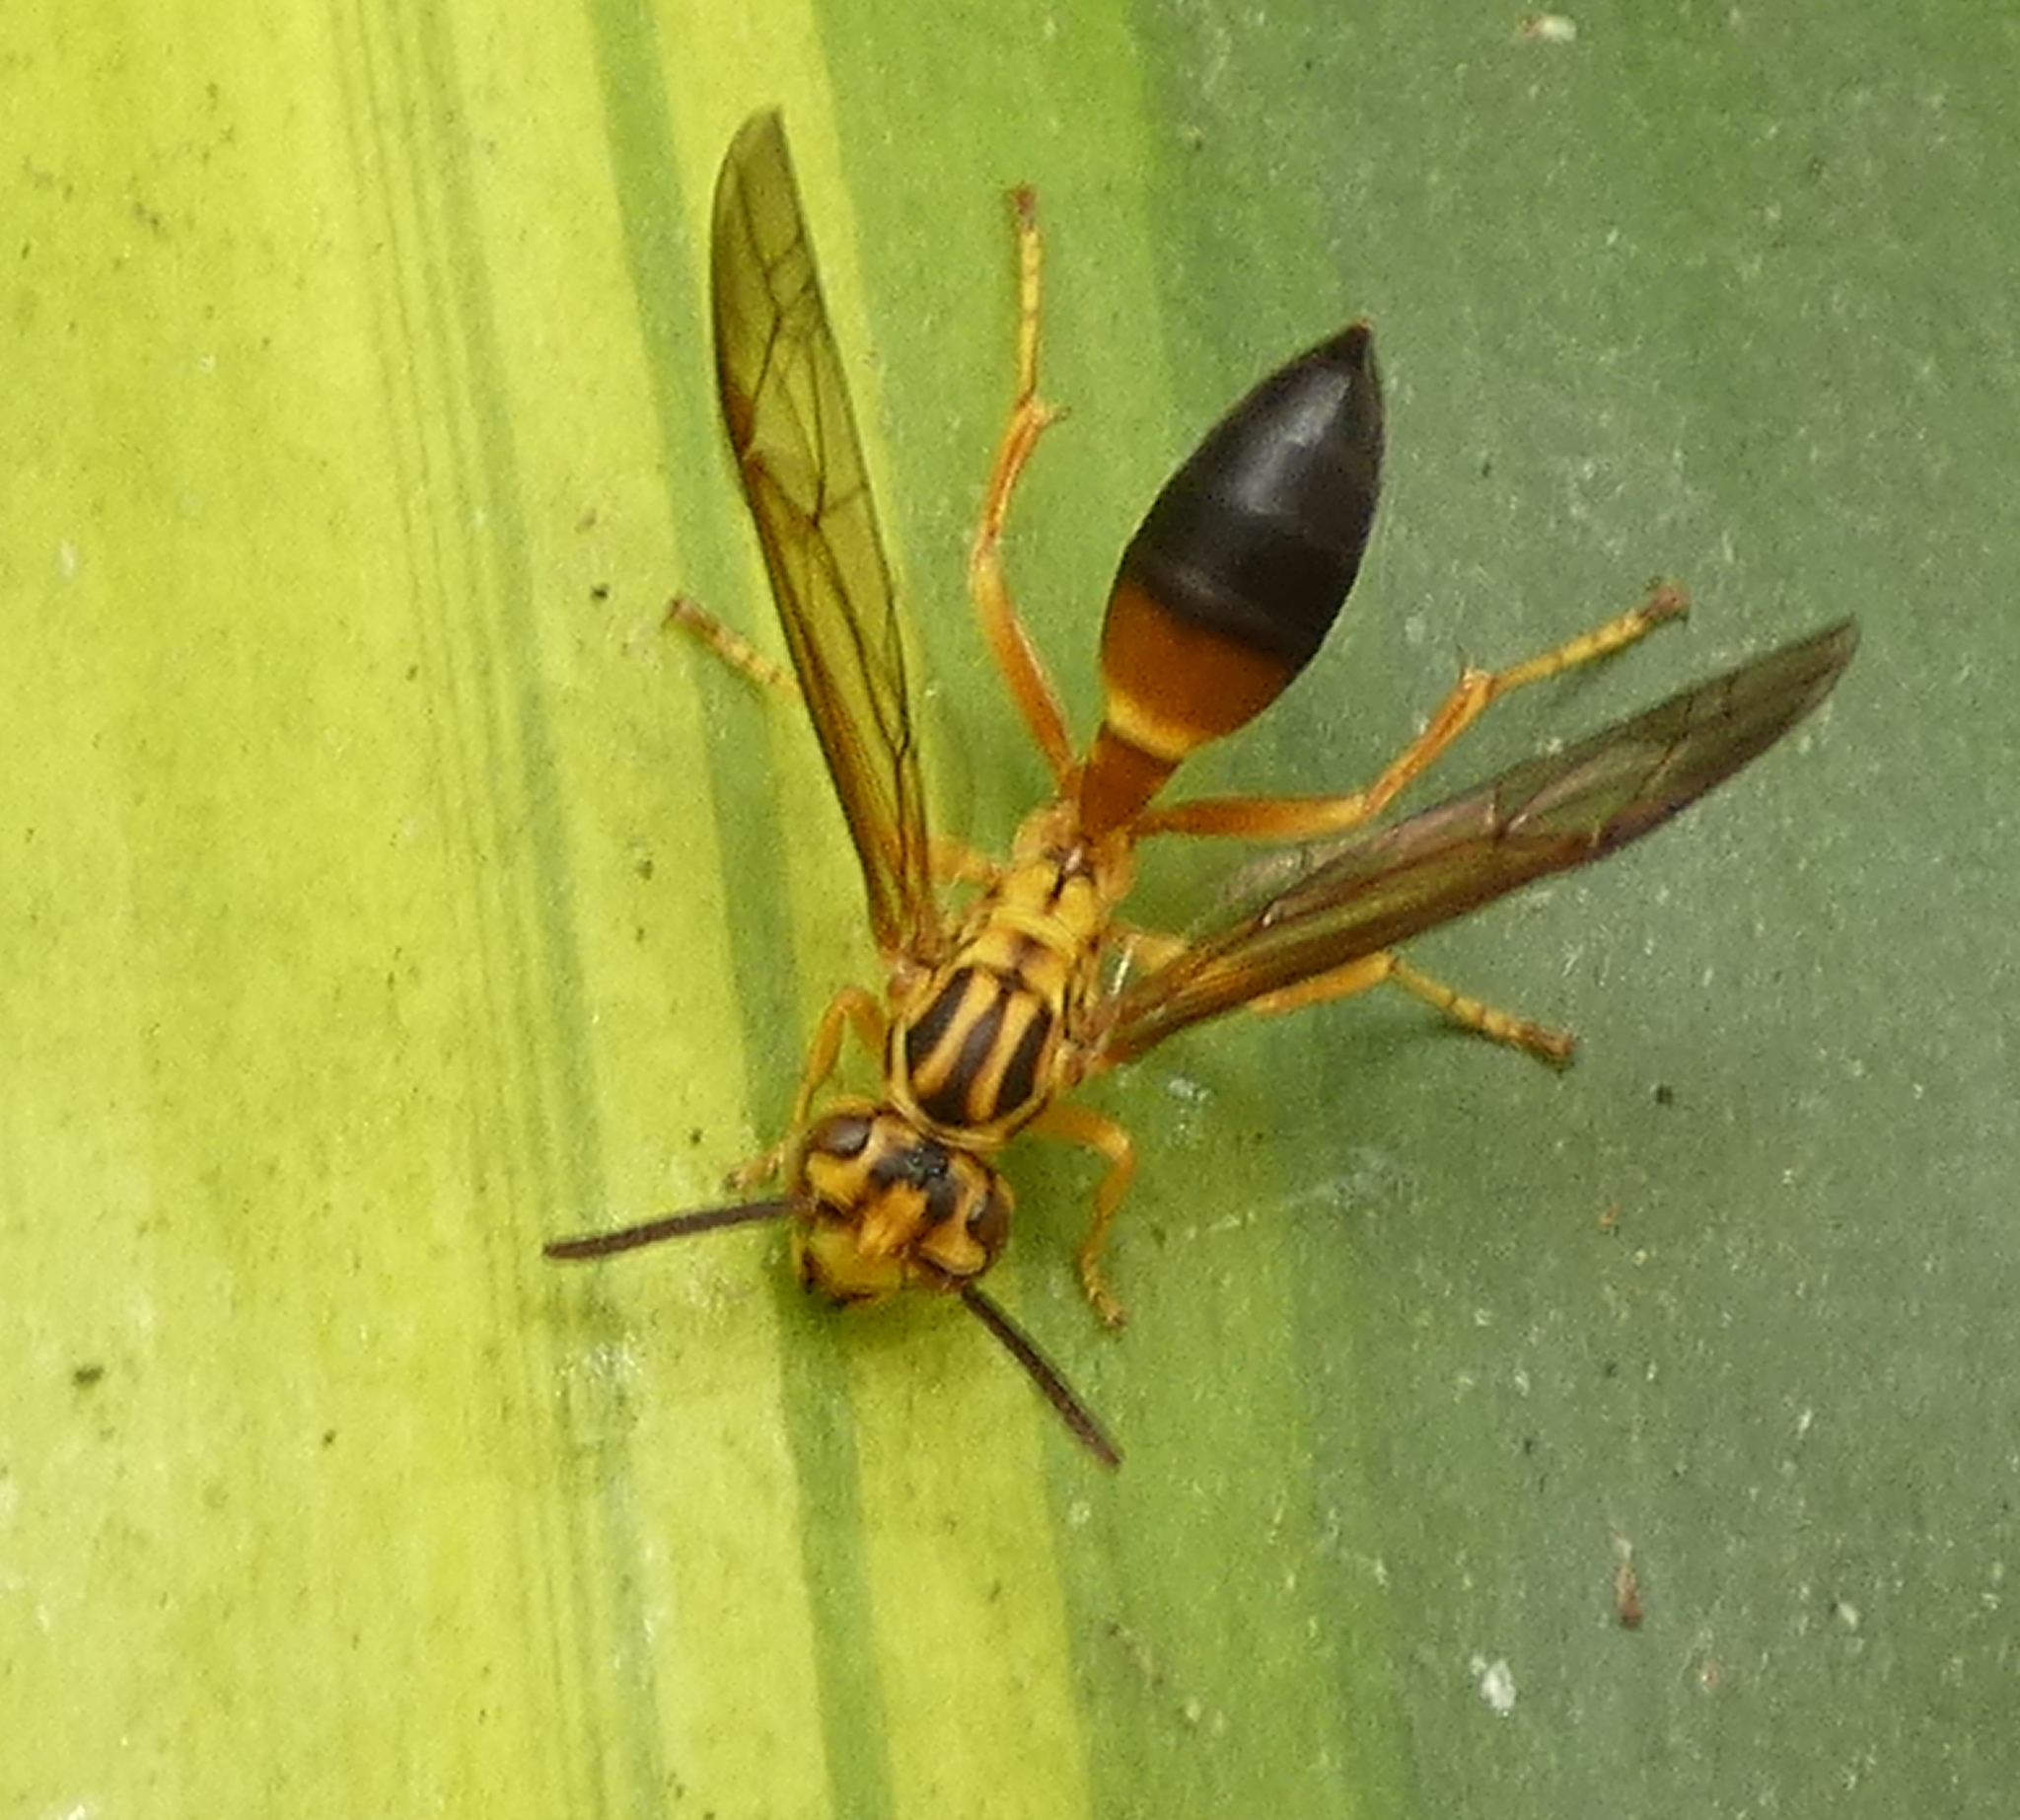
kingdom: Animalia
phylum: Arthropoda
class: Insecta
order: Hymenoptera
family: Vespidae
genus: Agelaia
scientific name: Agelaia pallipes
